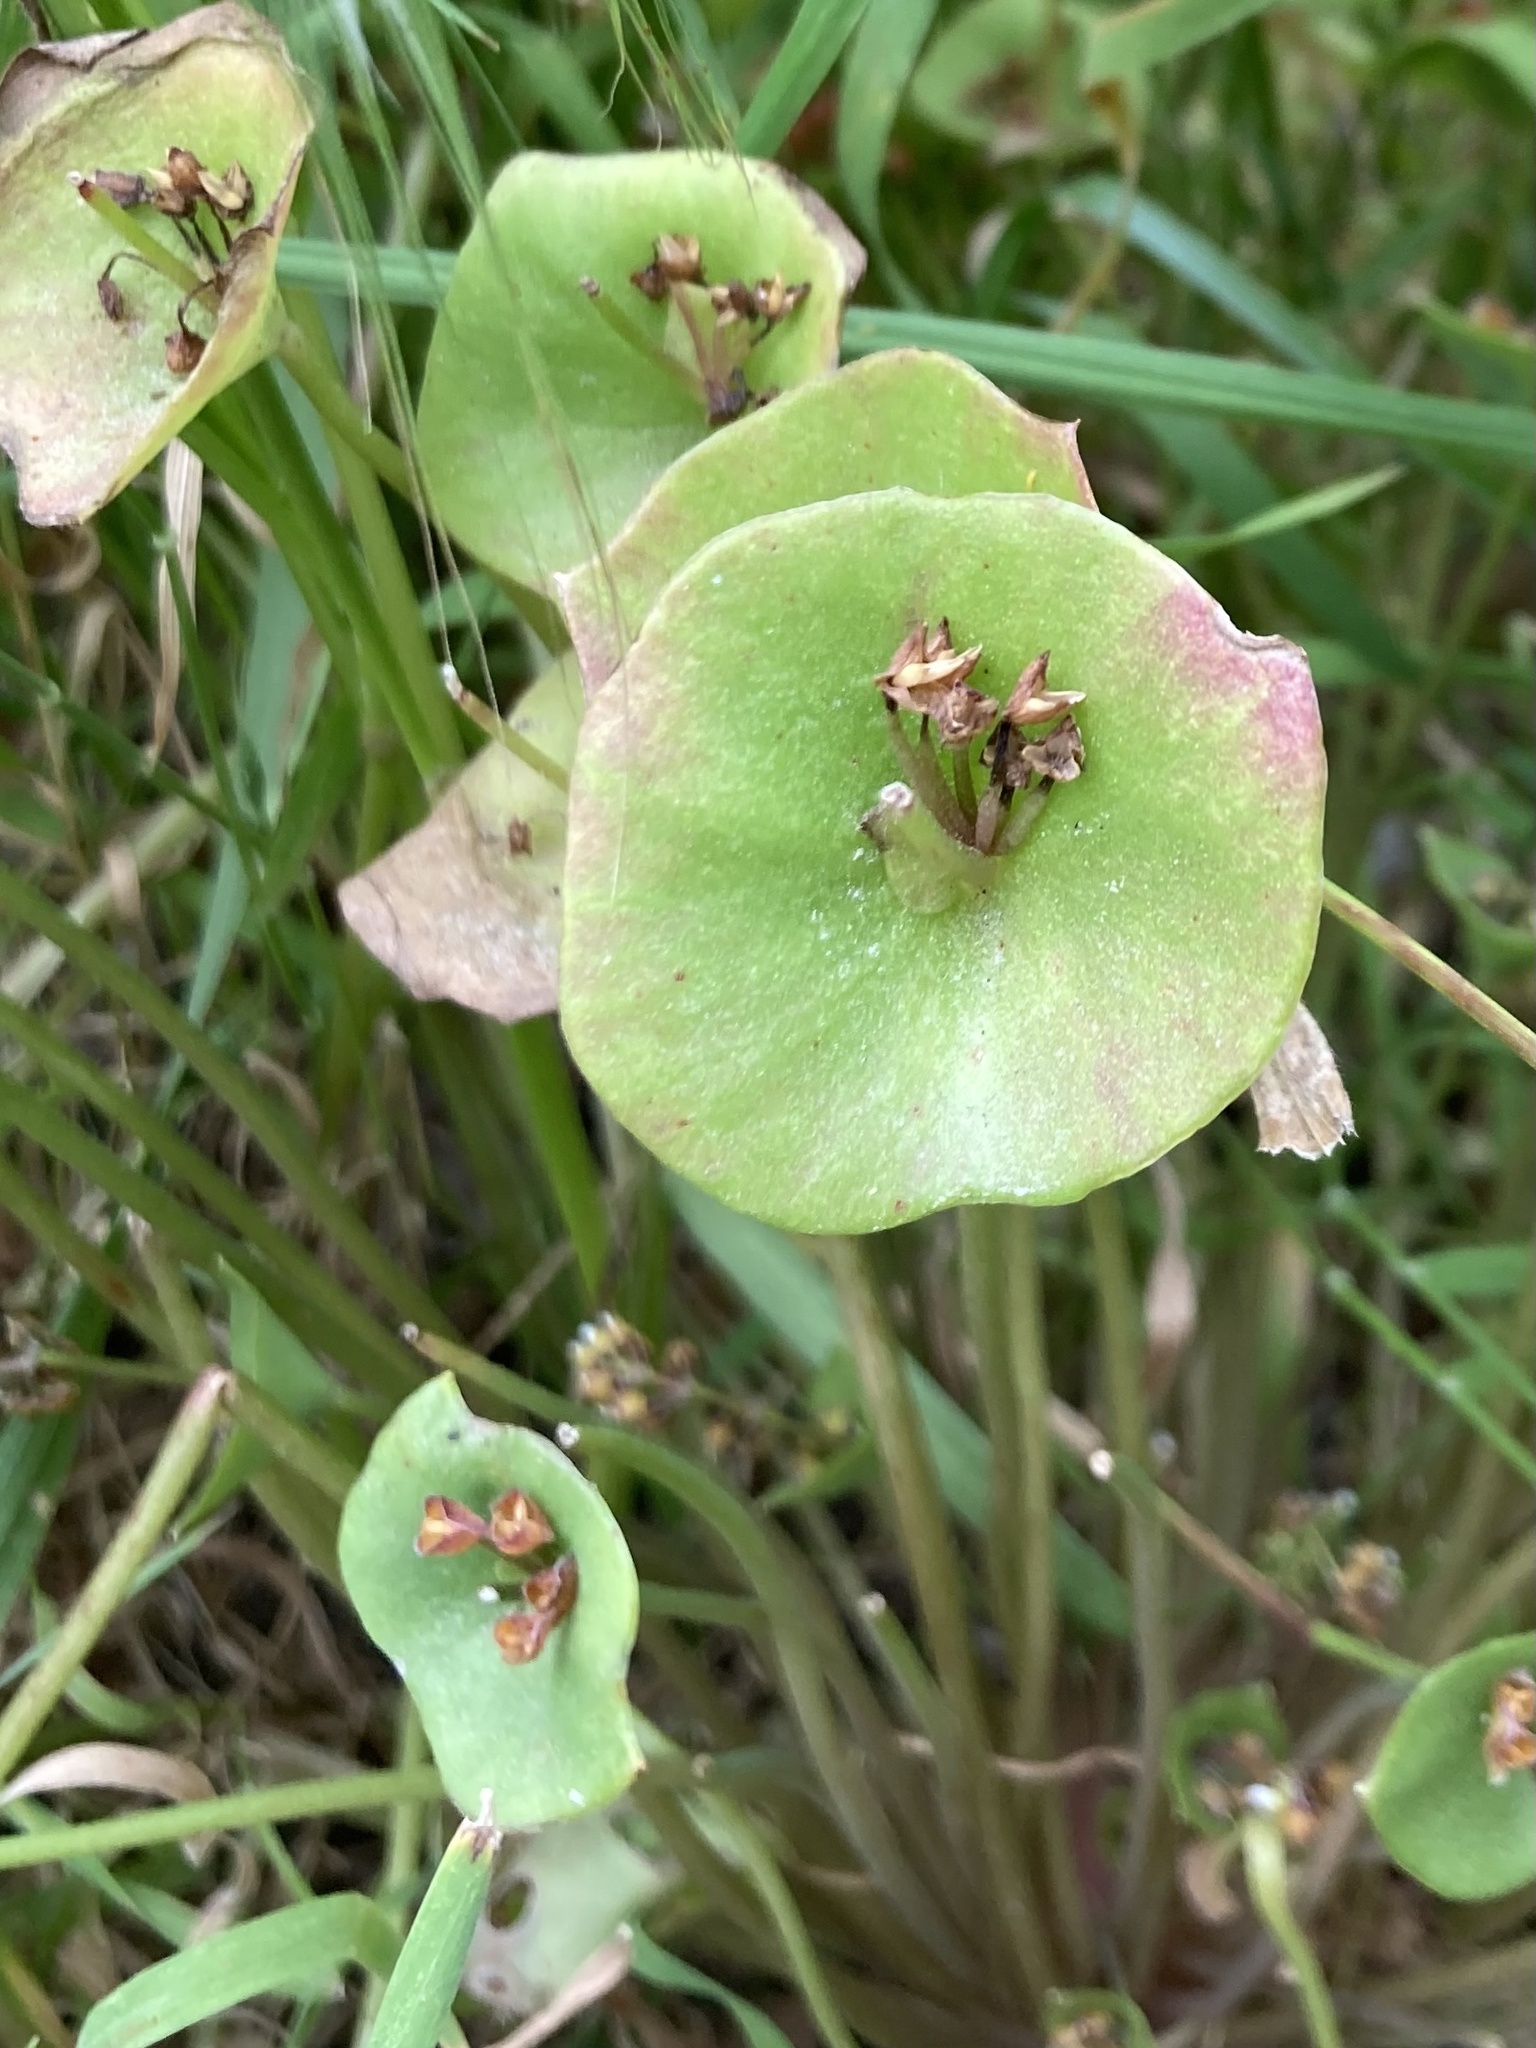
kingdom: Plantae
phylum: Tracheophyta
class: Magnoliopsida
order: Caryophyllales
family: Montiaceae
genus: Claytonia
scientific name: Claytonia perfoliata
